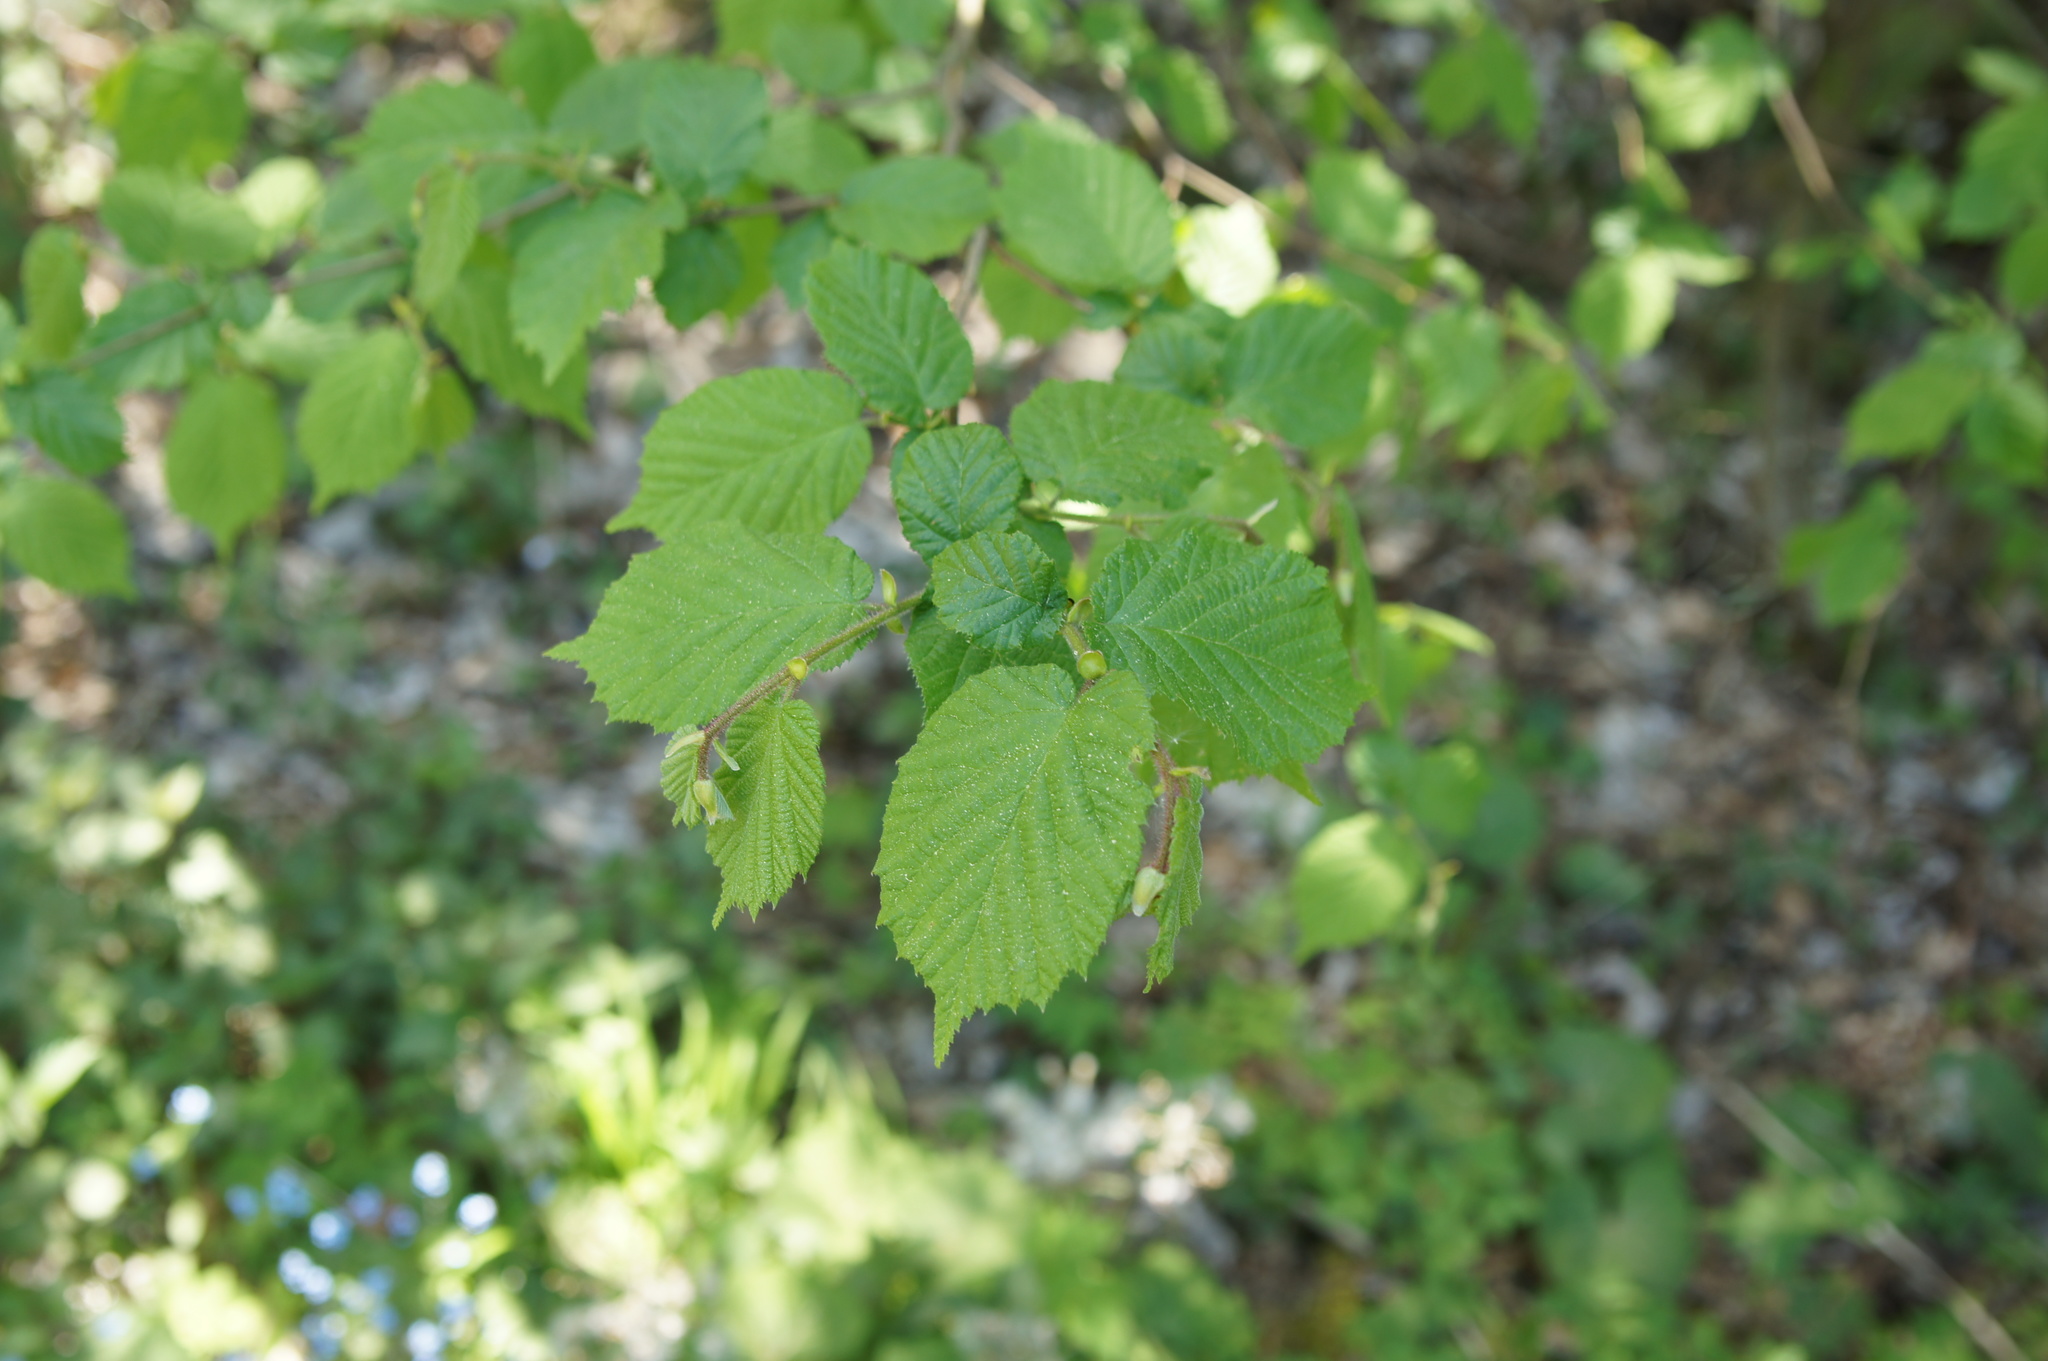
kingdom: Plantae
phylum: Tracheophyta
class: Magnoliopsida
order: Fagales
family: Betulaceae
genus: Corylus
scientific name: Corylus avellana
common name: European hazel
